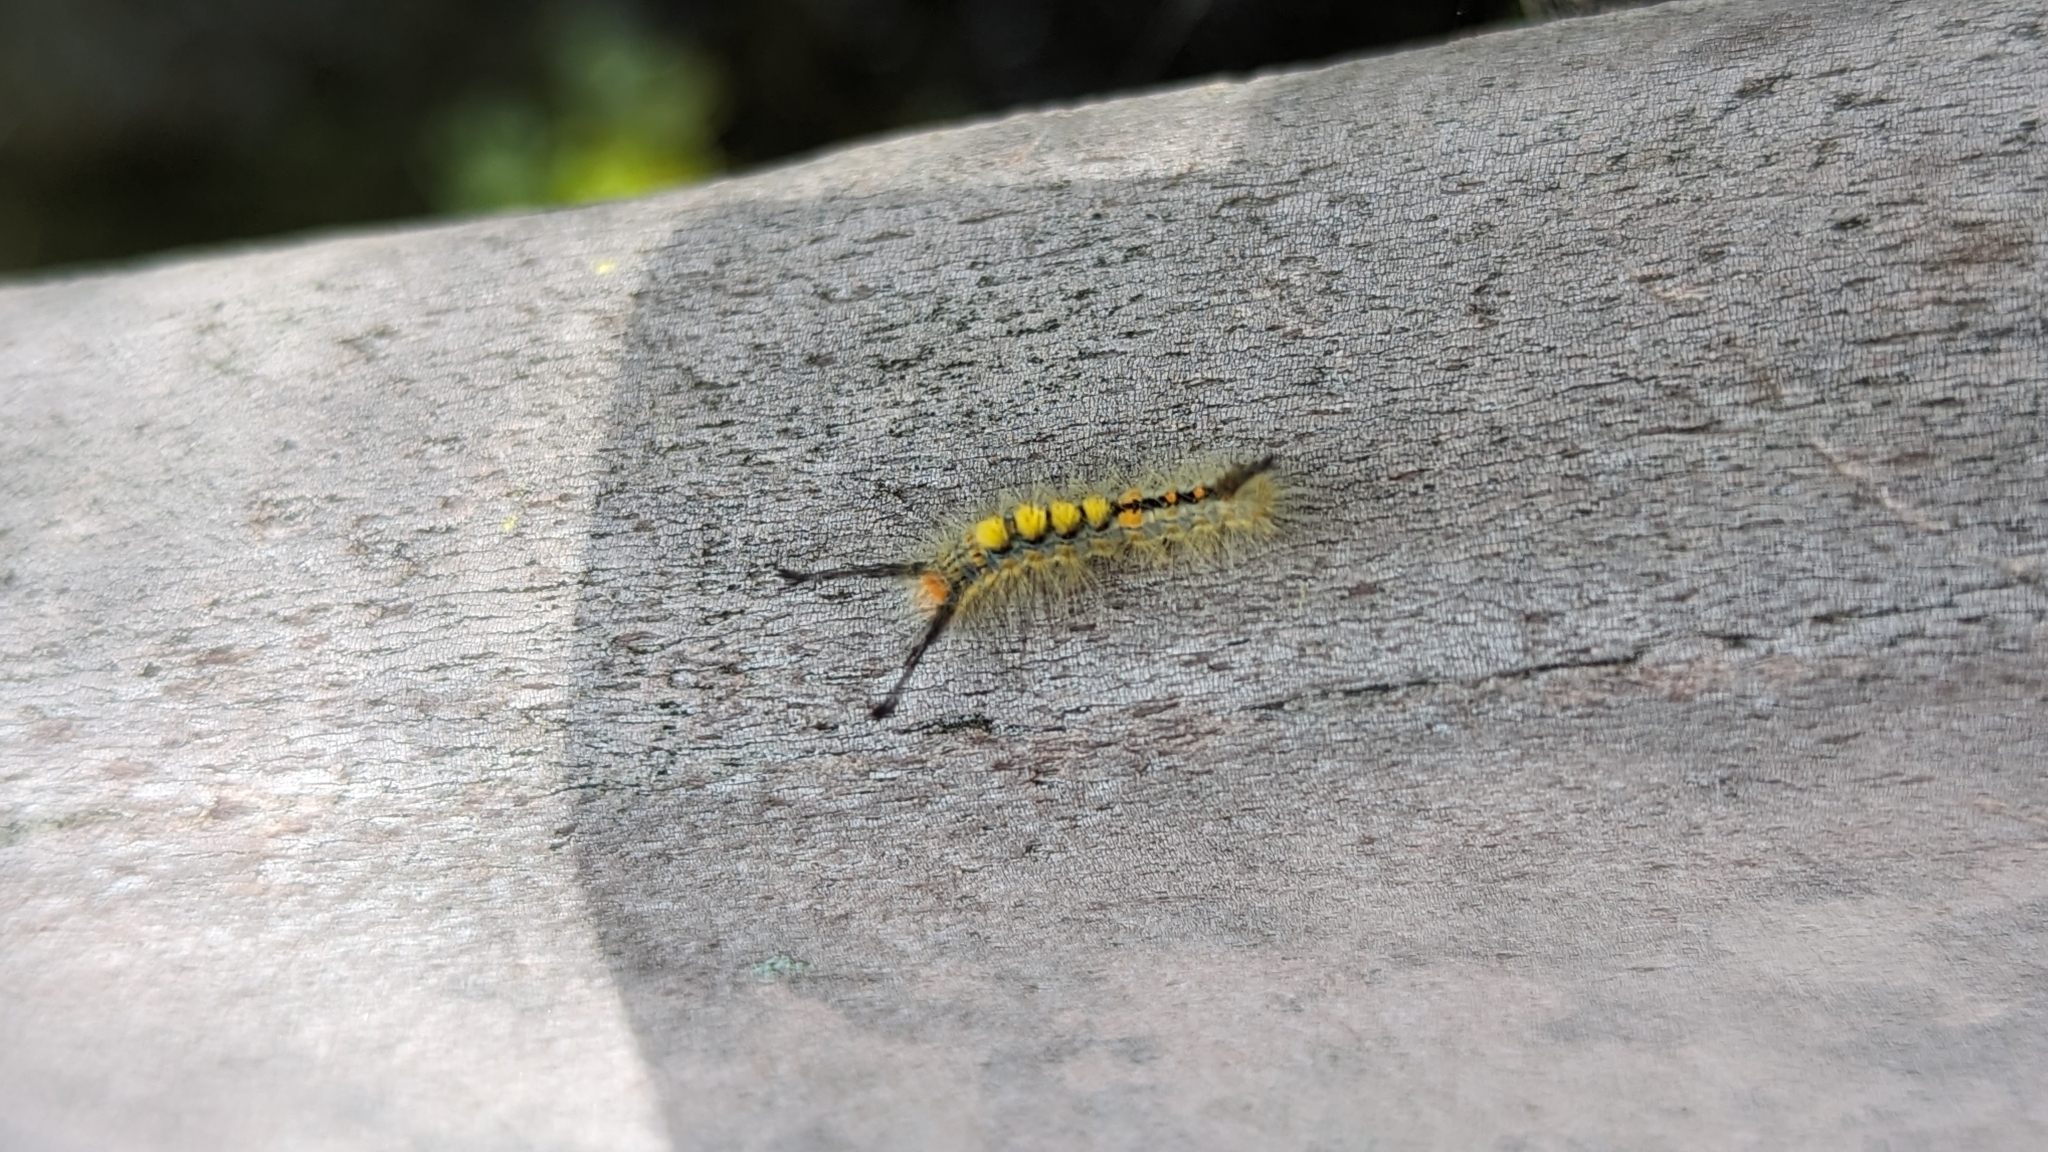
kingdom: Animalia
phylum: Arthropoda
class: Insecta
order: Lepidoptera
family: Erebidae
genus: Orgyia
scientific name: Orgyia detrita
